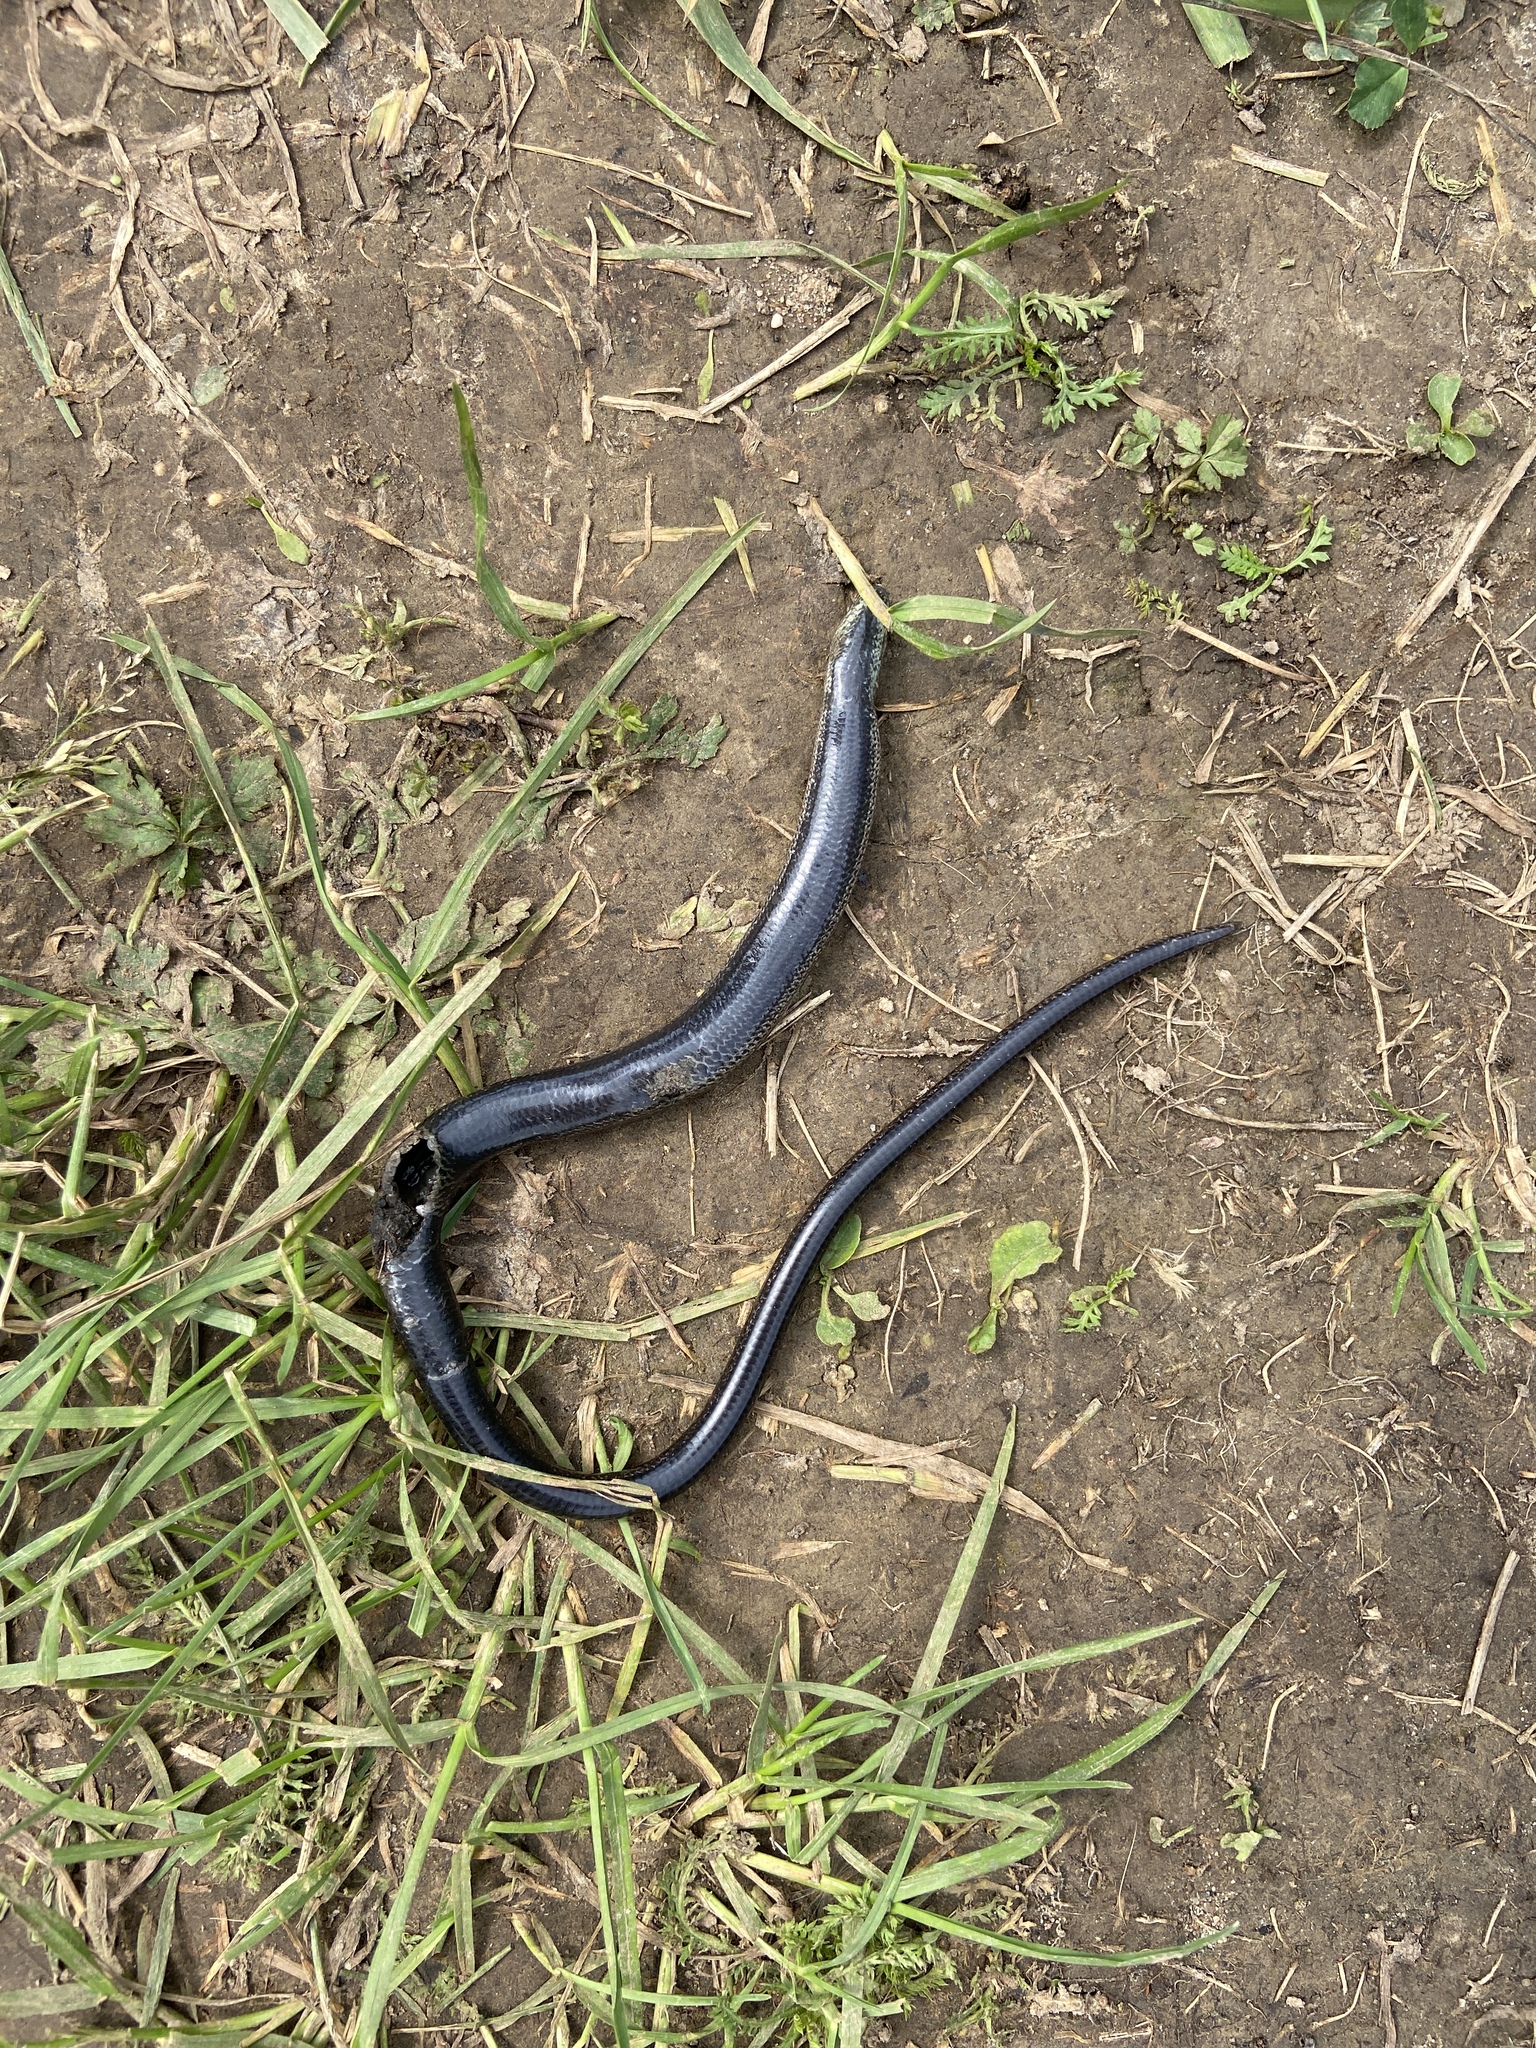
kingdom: Animalia
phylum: Chordata
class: Squamata
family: Anguidae
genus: Anguis
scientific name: Anguis colchica
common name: Slow worm
